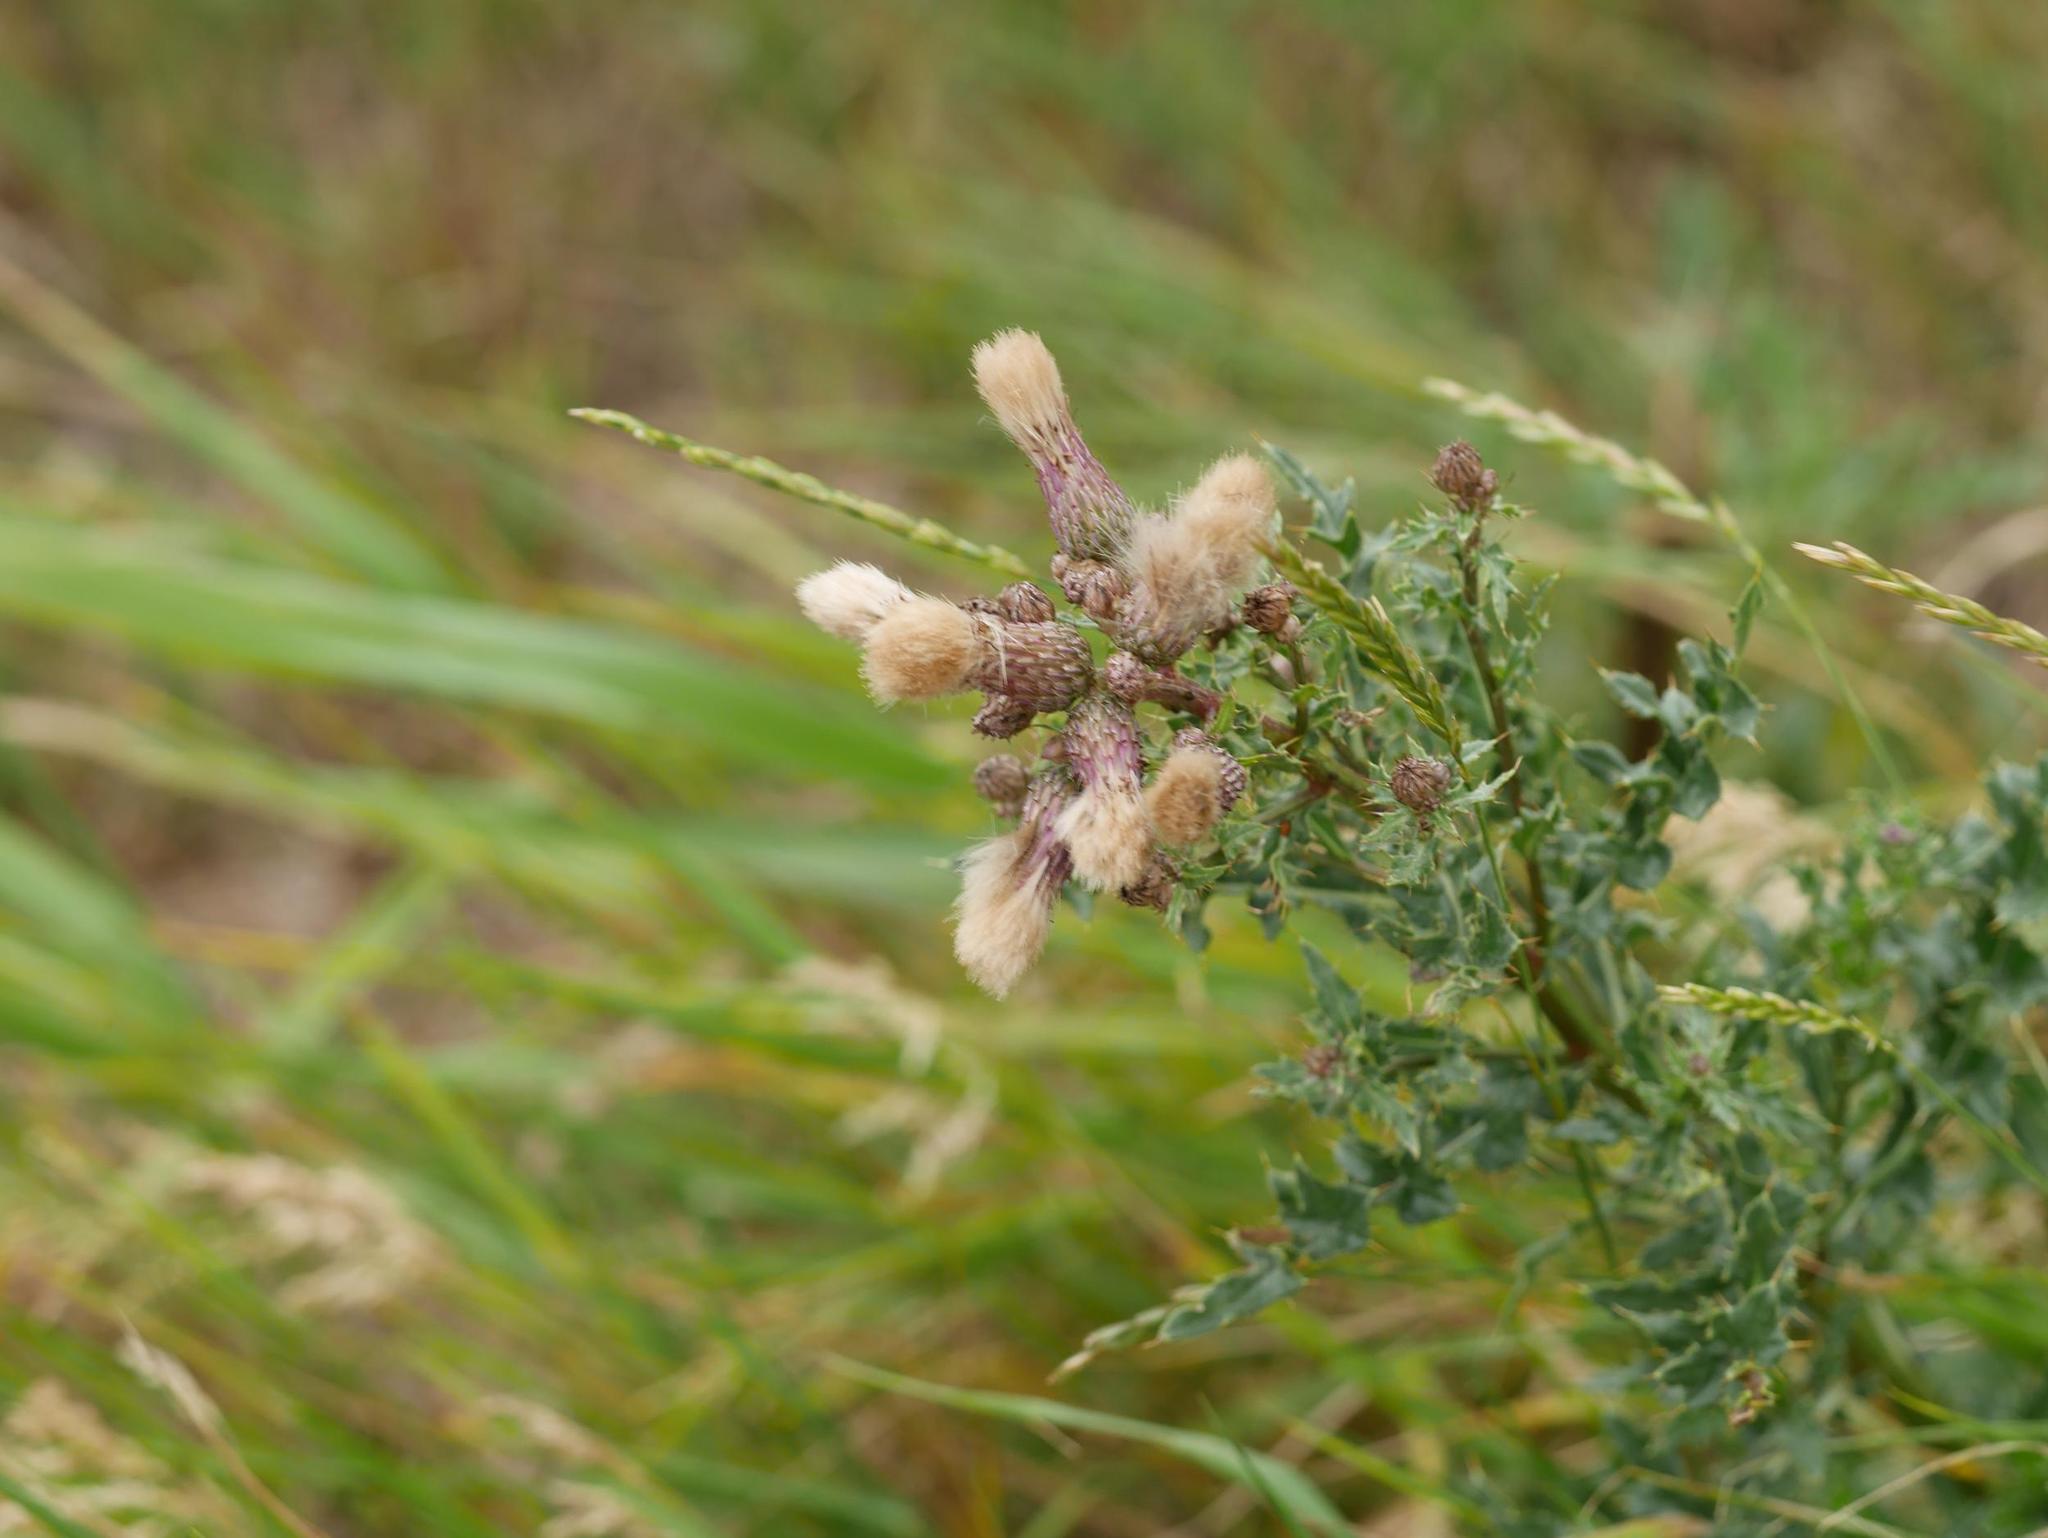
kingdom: Plantae
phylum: Tracheophyta
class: Magnoliopsida
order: Asterales
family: Asteraceae
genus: Cirsium
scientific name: Cirsium arvense
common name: Creeping thistle
